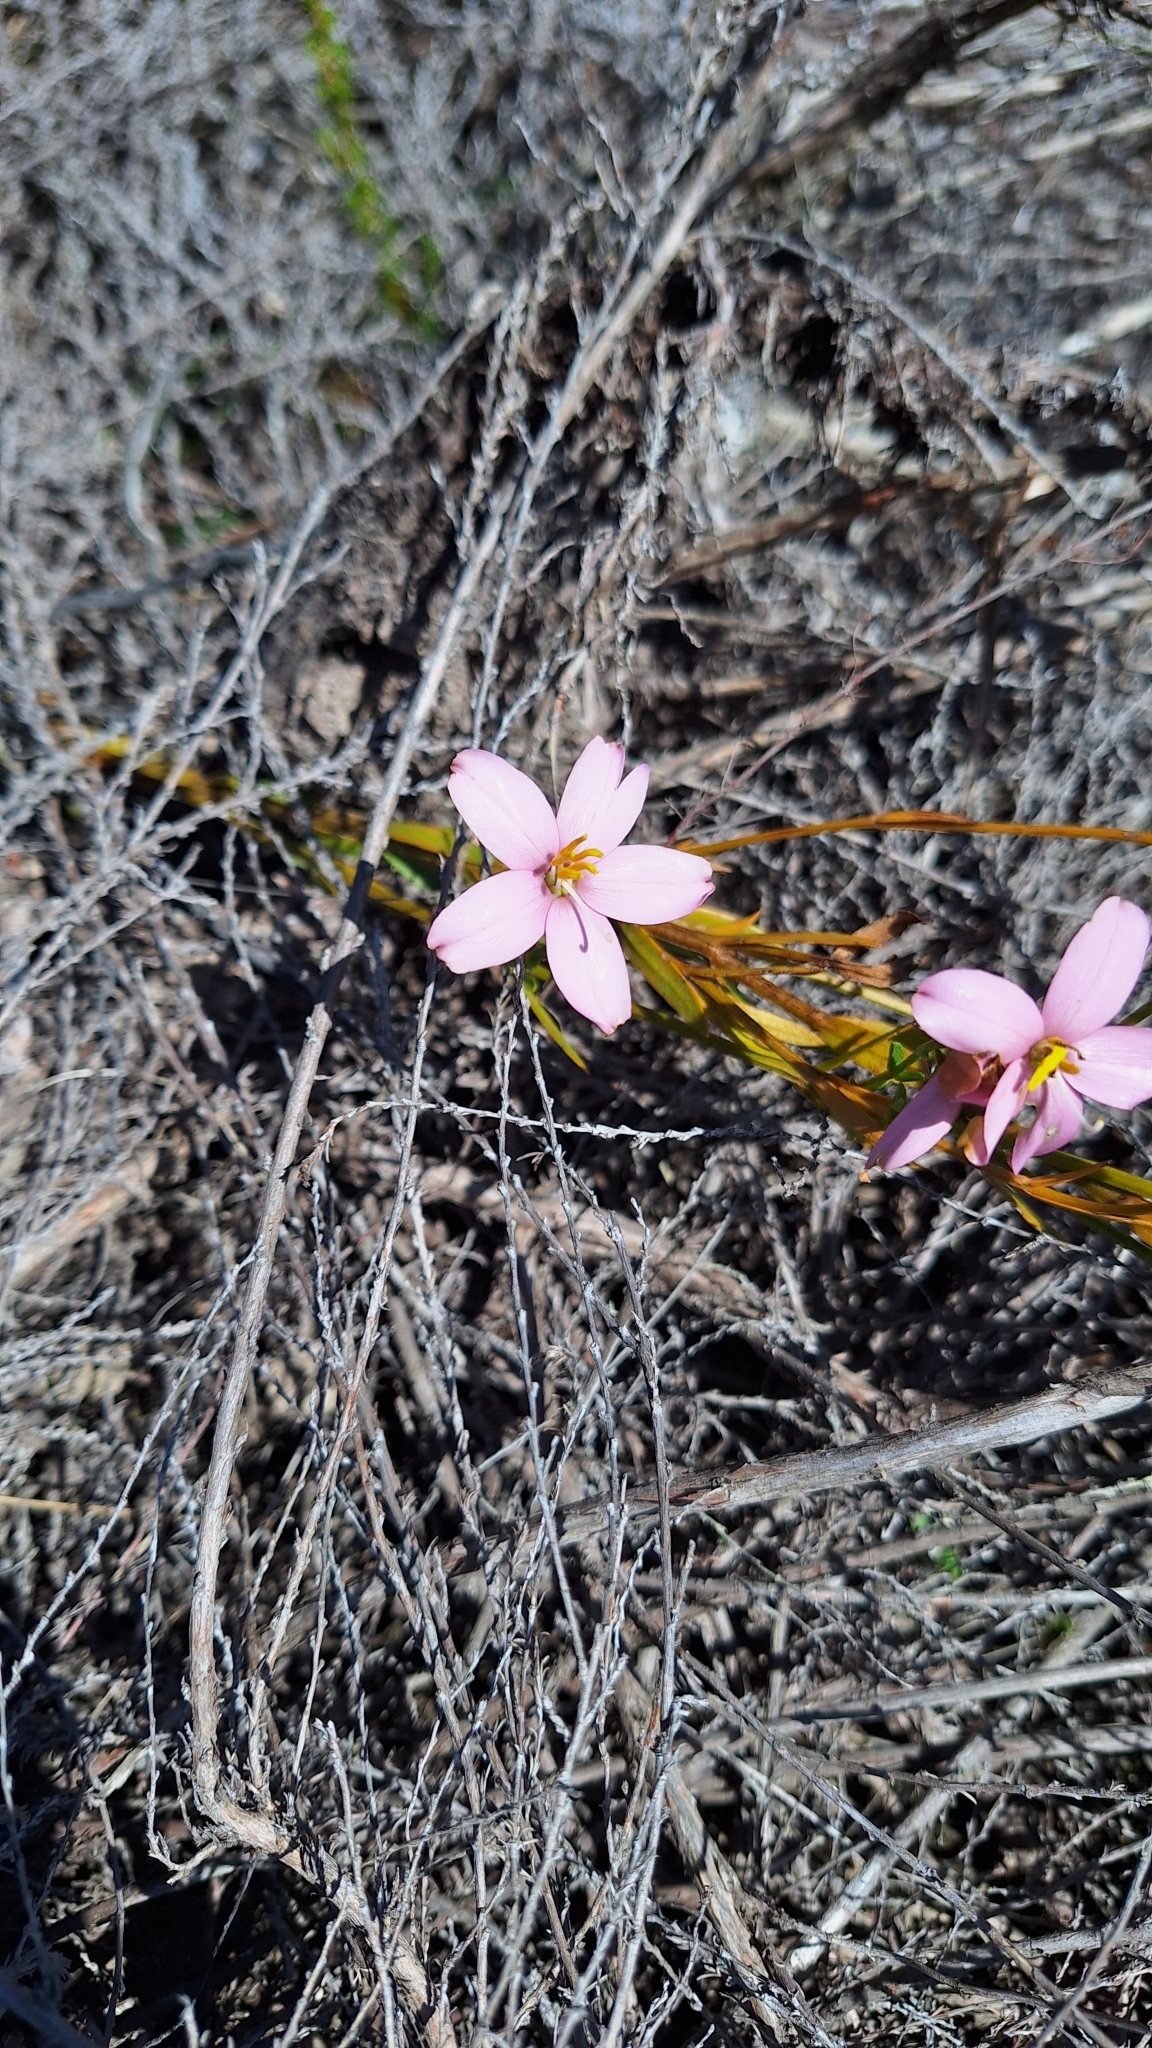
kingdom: Plantae
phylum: Tracheophyta
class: Magnoliopsida
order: Gentianales
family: Gentianaceae
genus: Chironia
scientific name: Chironia tetragona
